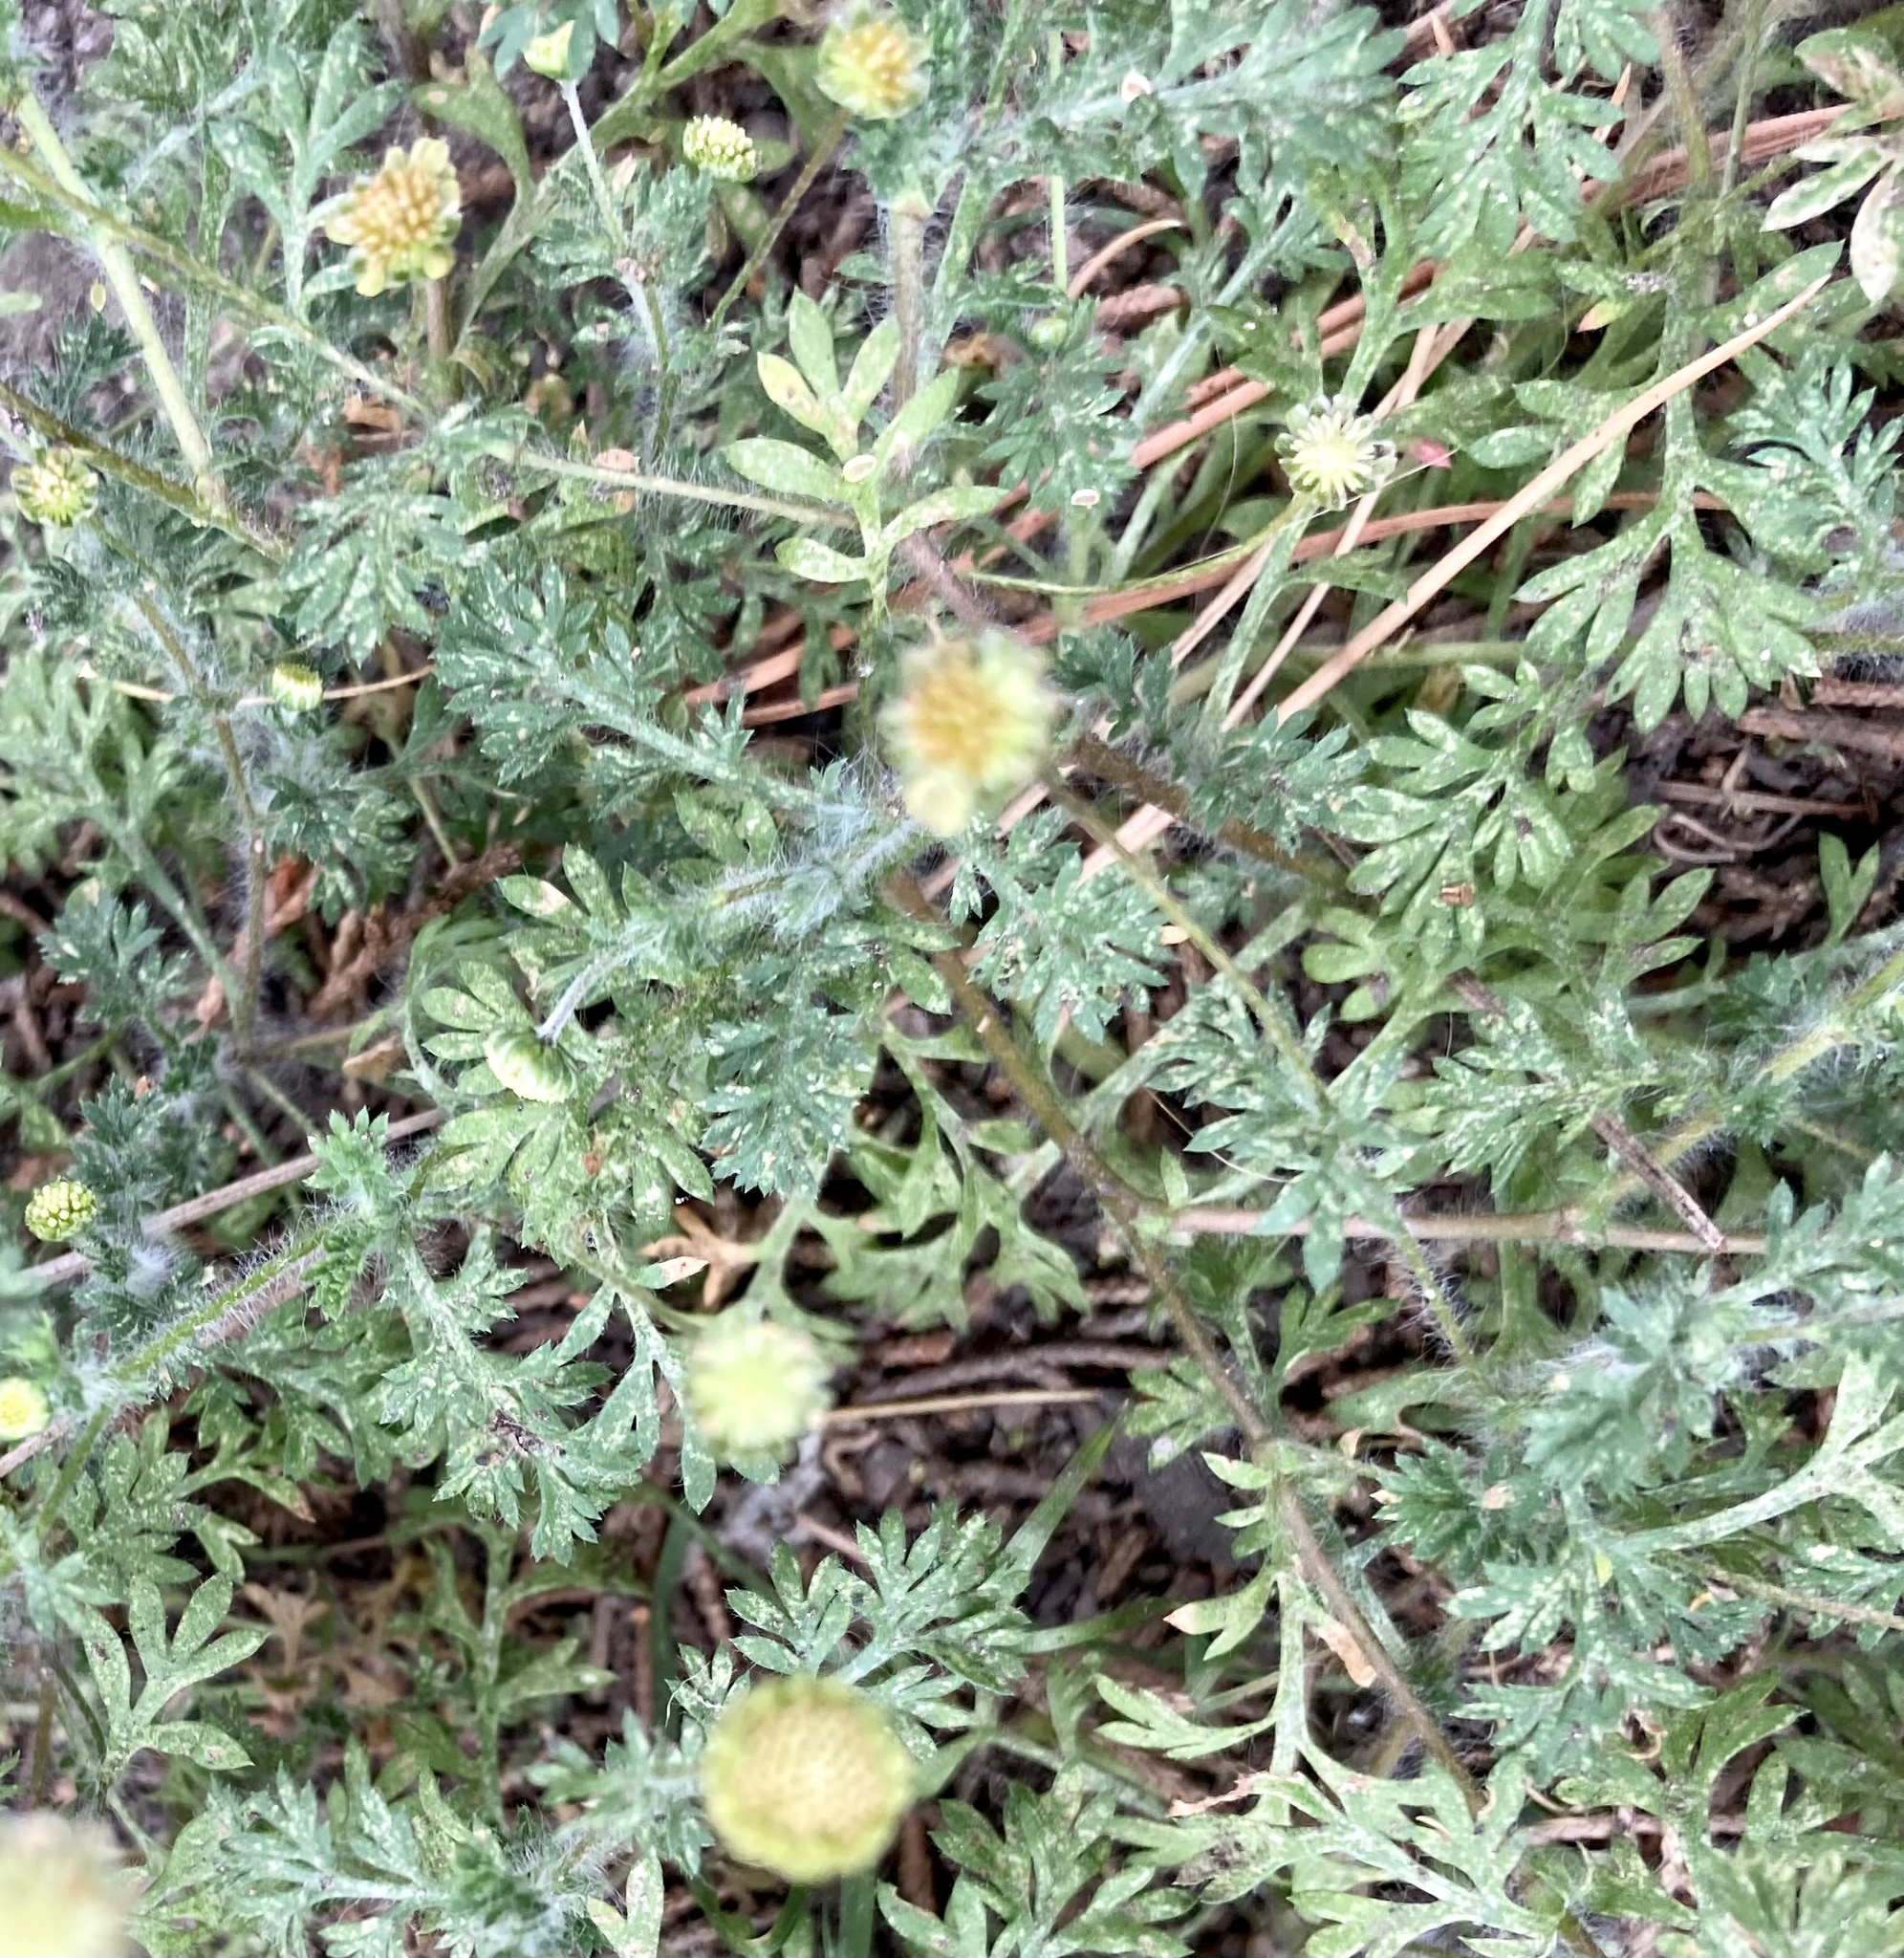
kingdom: Plantae
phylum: Tracheophyta
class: Magnoliopsida
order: Asterales
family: Asteraceae
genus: Cotula
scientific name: Cotula australis
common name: Australian waterbuttons
